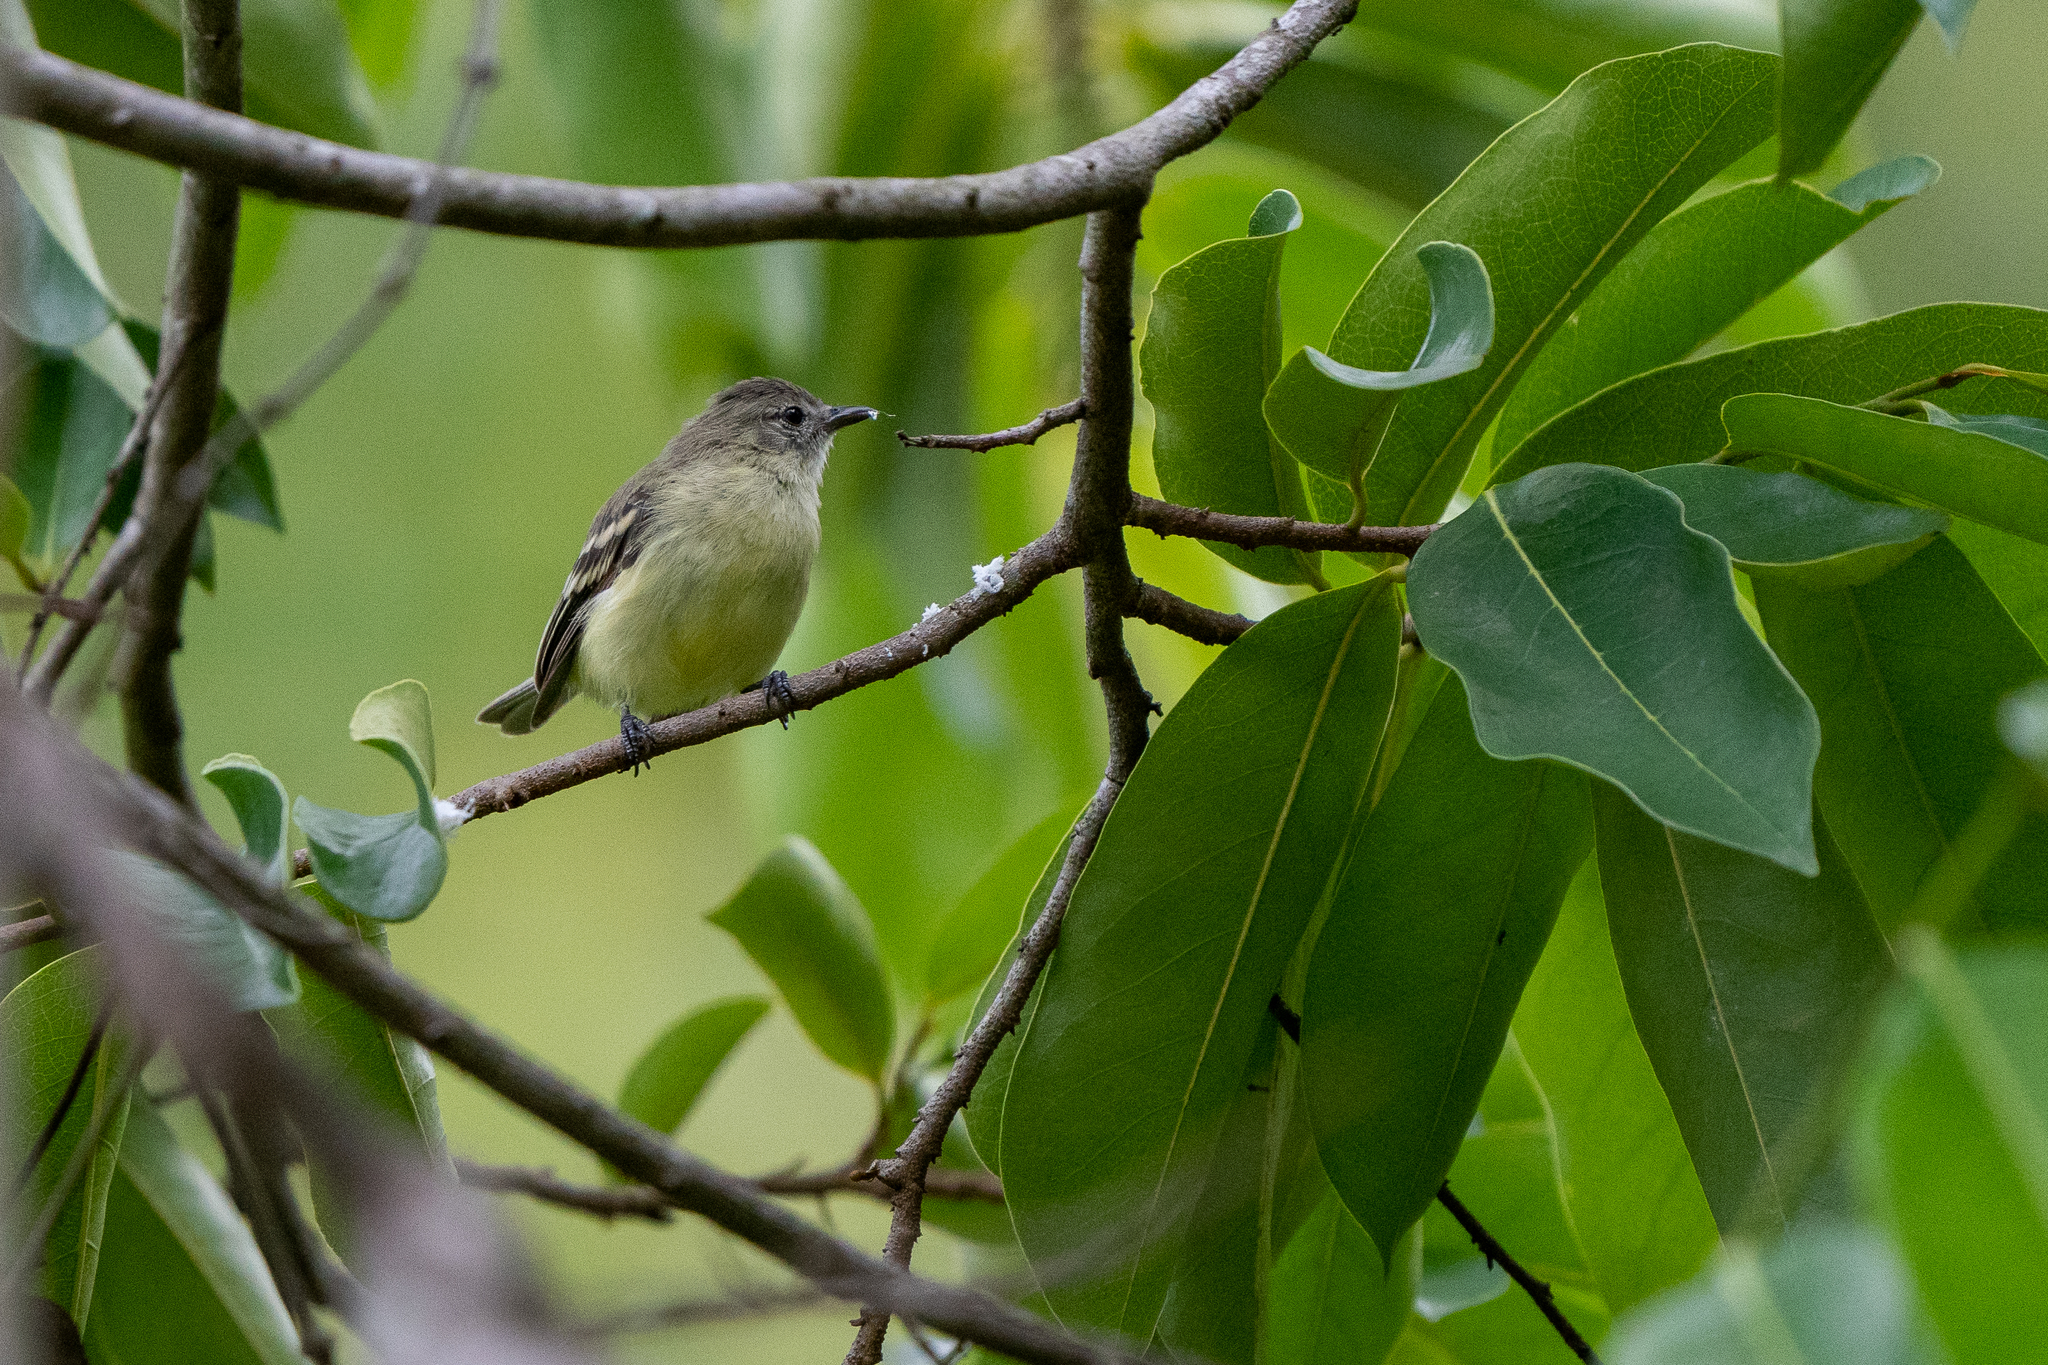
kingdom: Animalia
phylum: Chordata
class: Aves
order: Passeriformes
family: Tyrannidae
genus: Camptostoma
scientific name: Camptostoma obsoletum
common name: Southern beardless-tyrannulet
